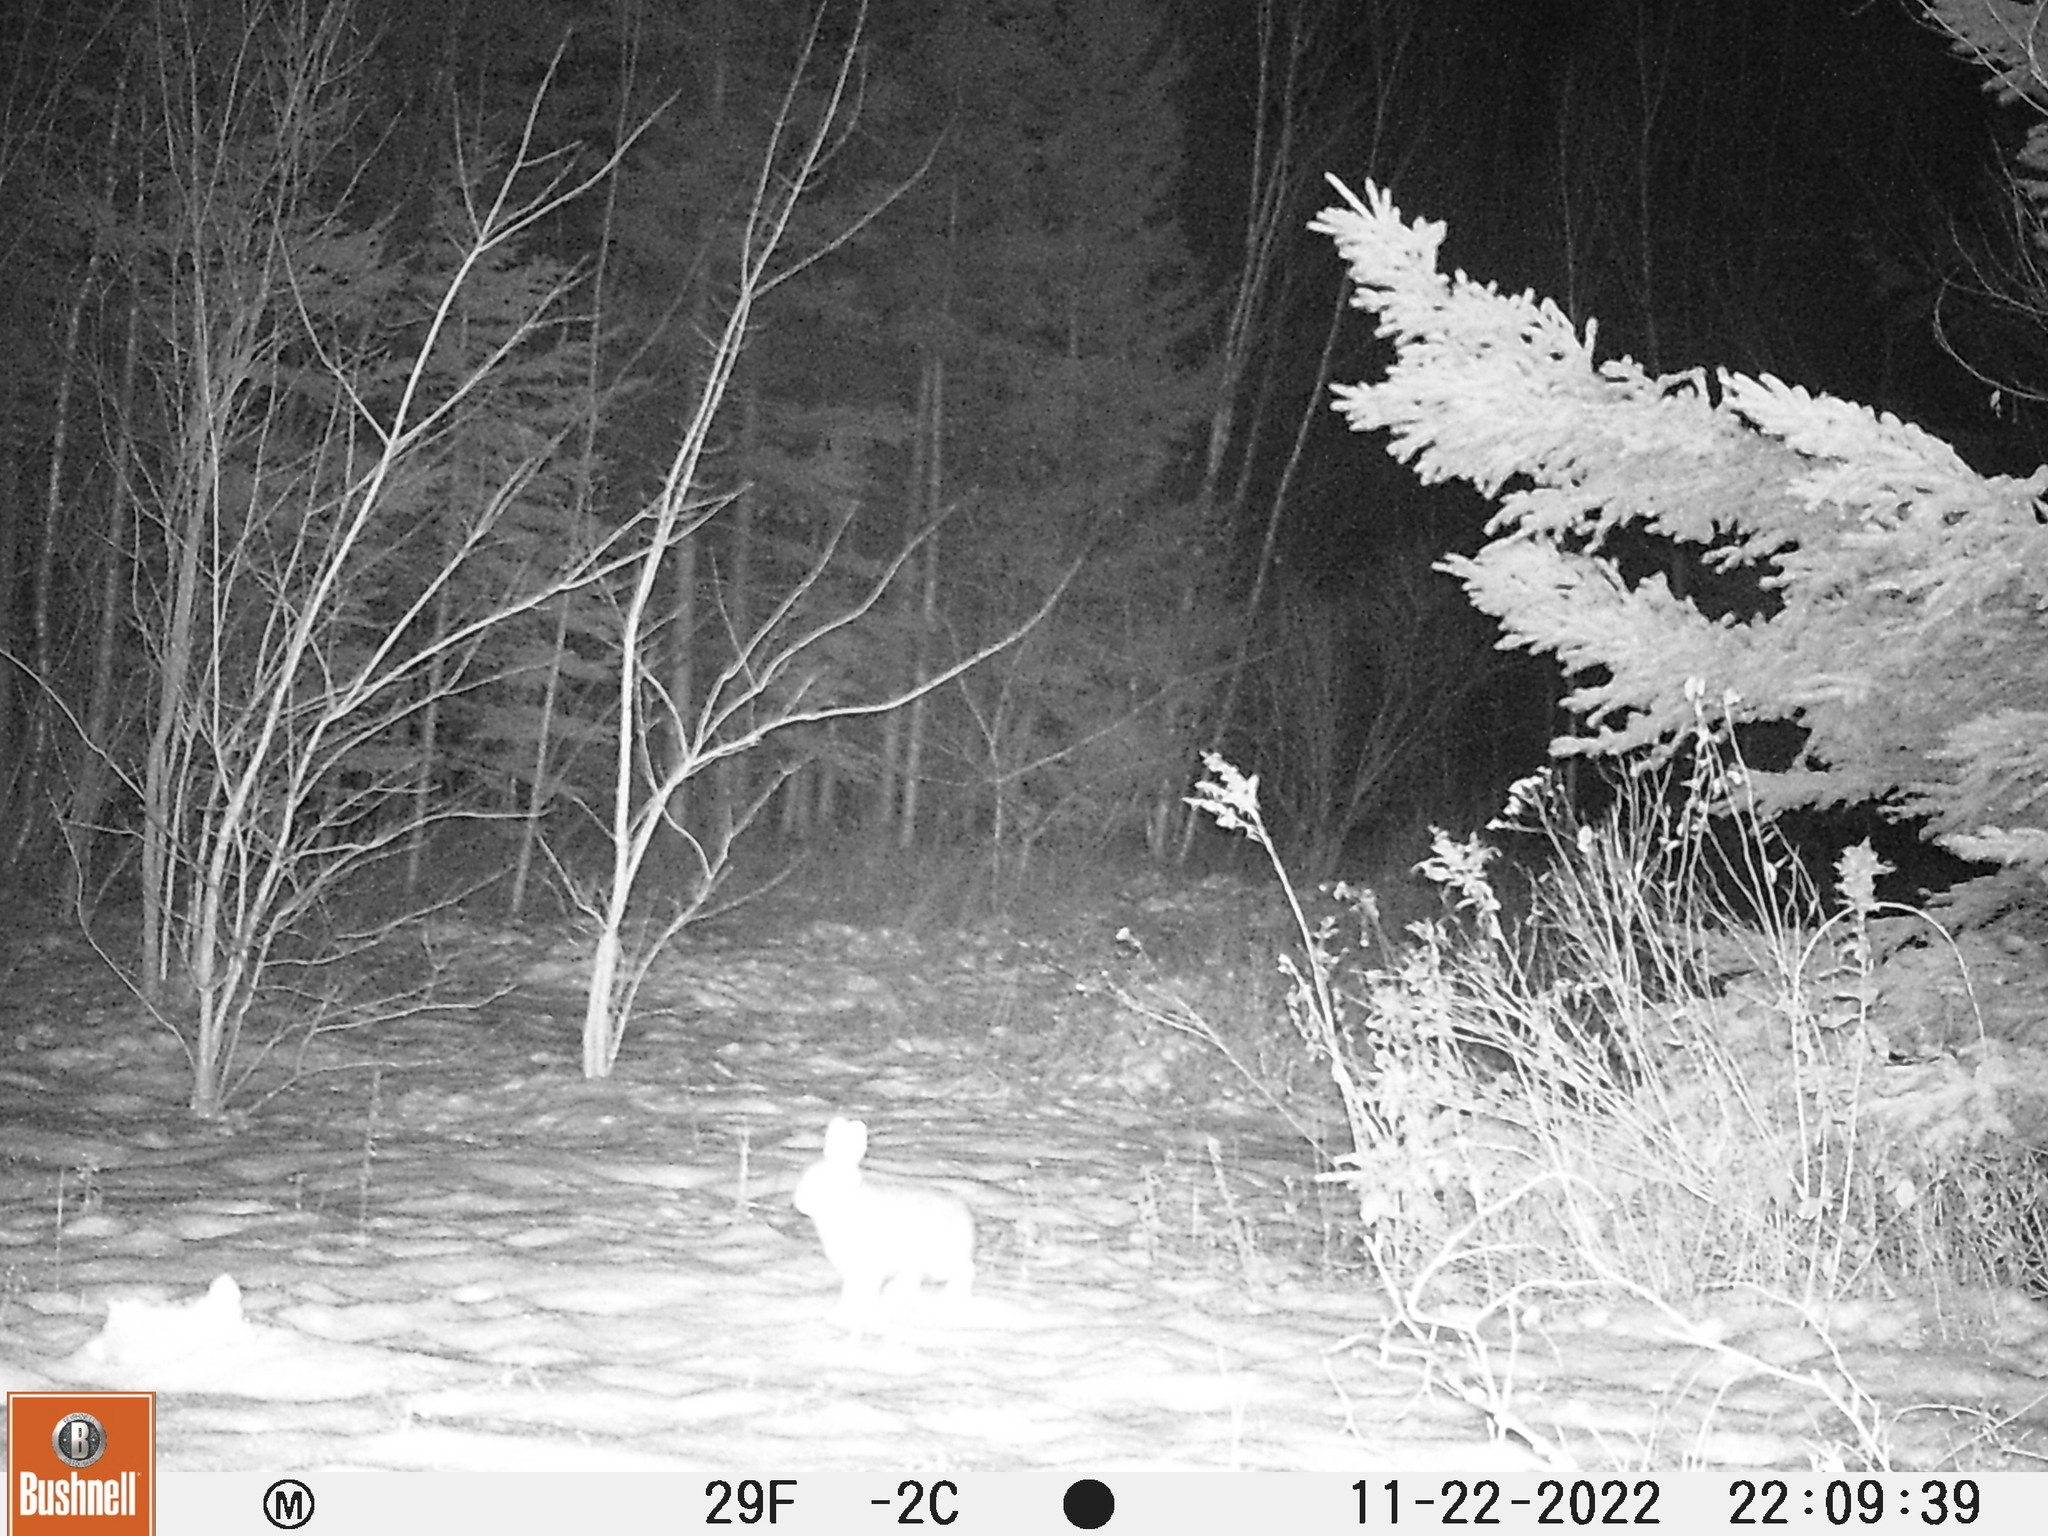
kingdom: Animalia
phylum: Chordata
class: Mammalia
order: Lagomorpha
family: Leporidae
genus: Lepus
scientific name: Lepus americanus
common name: Snowshoe hare
